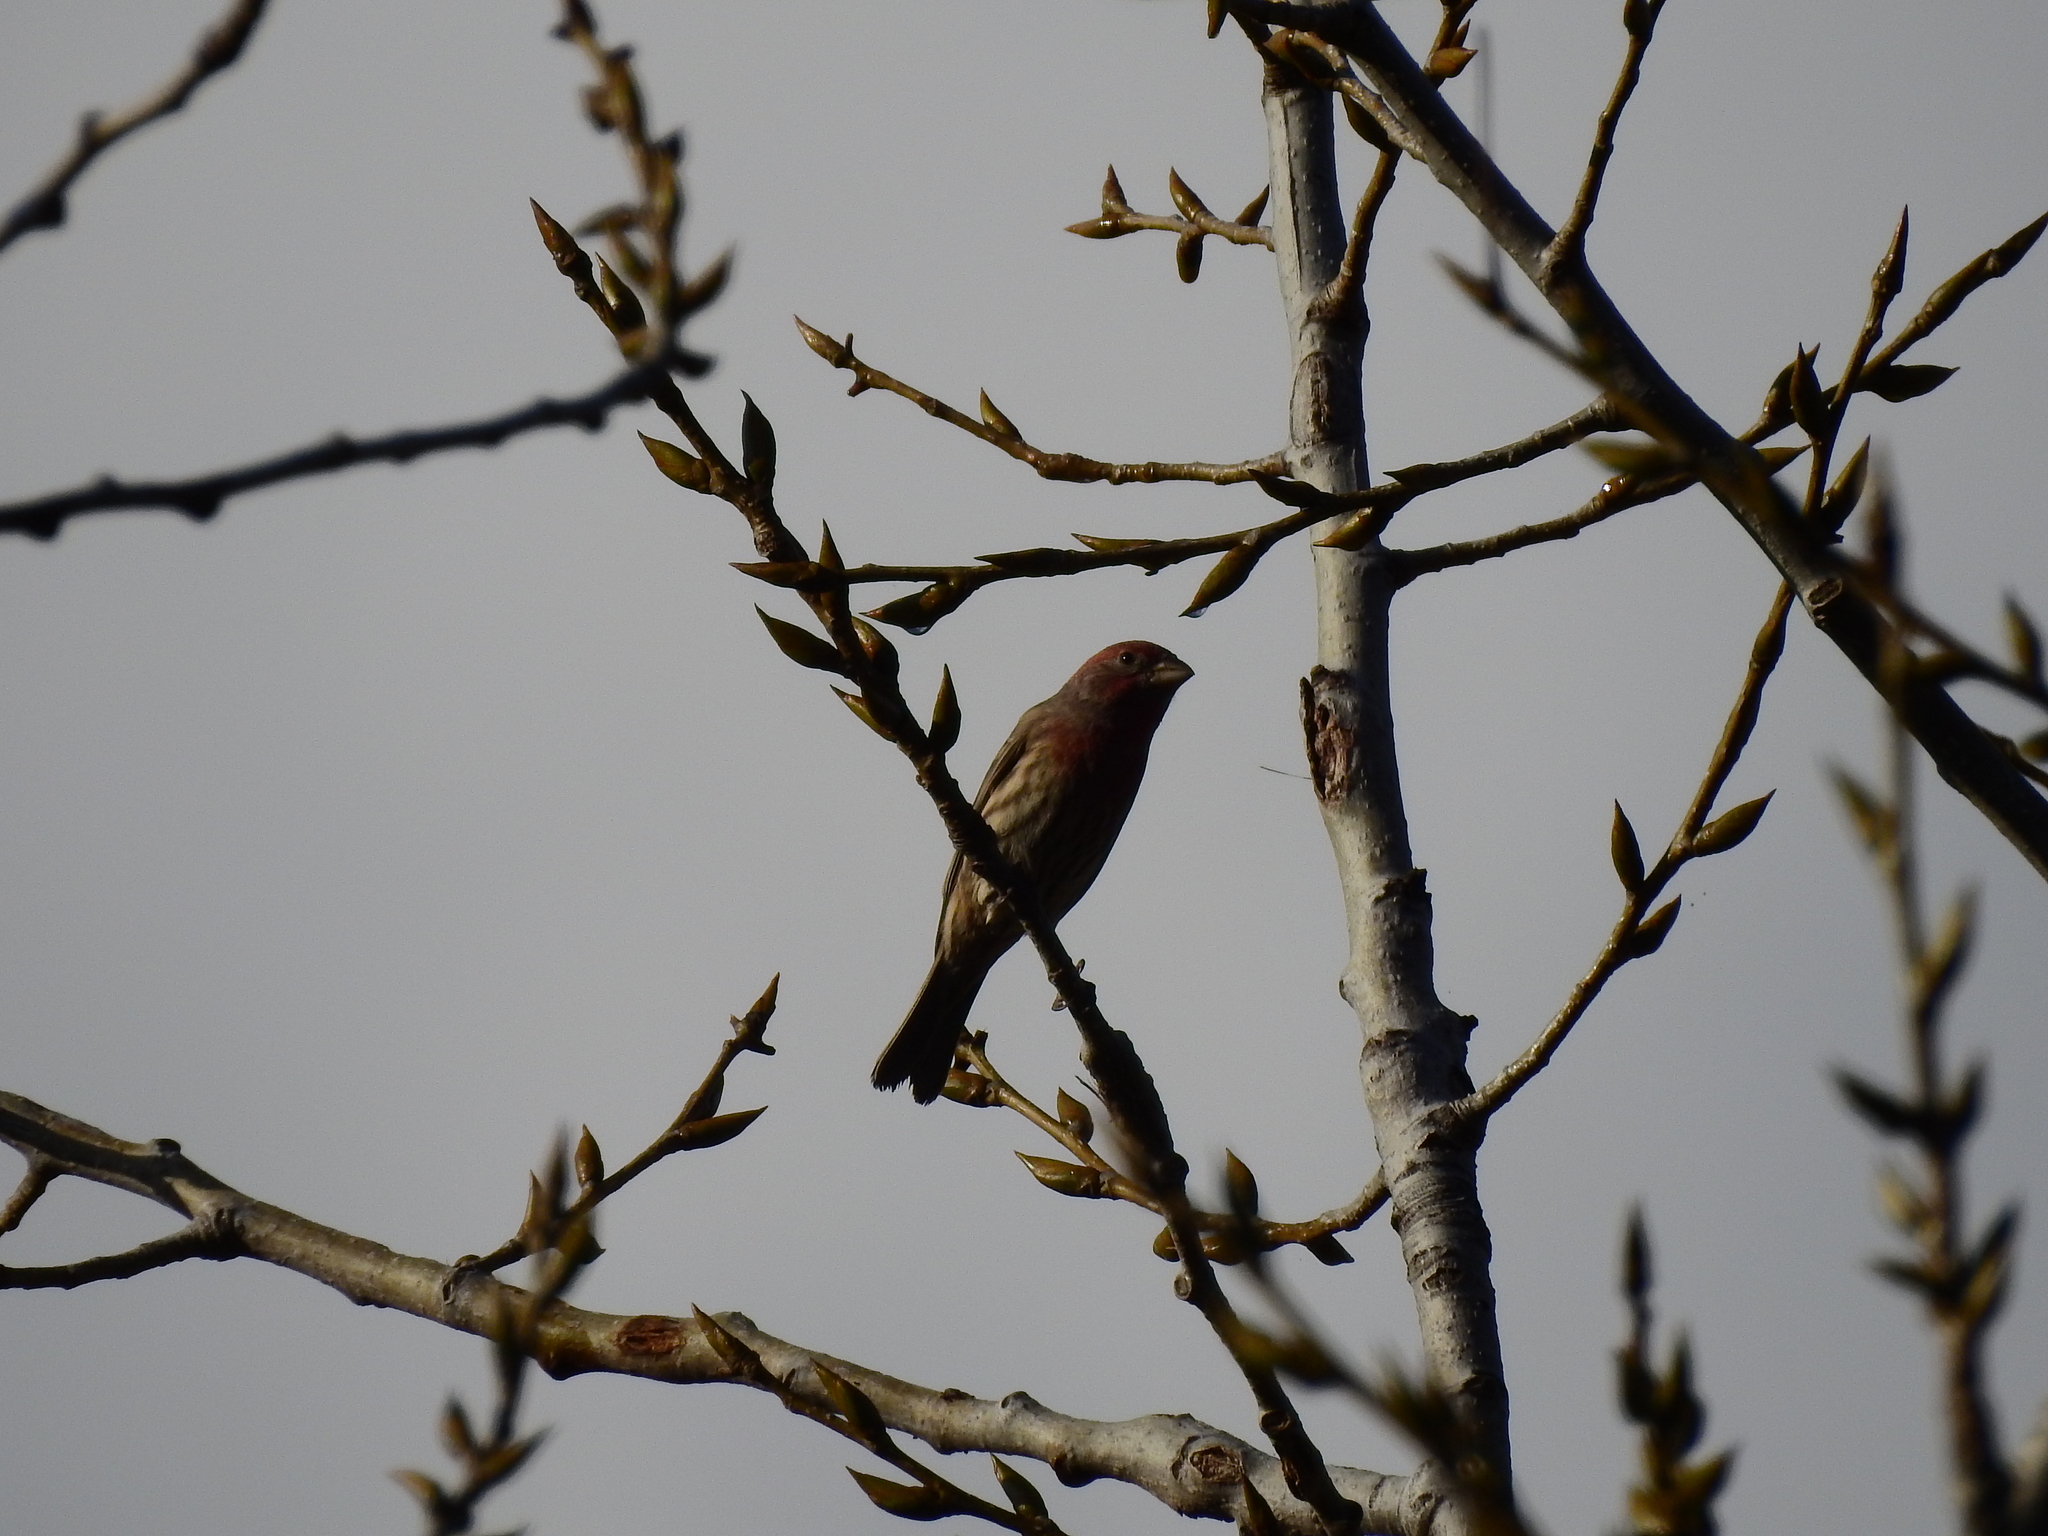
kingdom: Animalia
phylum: Chordata
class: Aves
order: Passeriformes
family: Fringillidae
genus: Haemorhous
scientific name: Haemorhous mexicanus
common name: House finch
